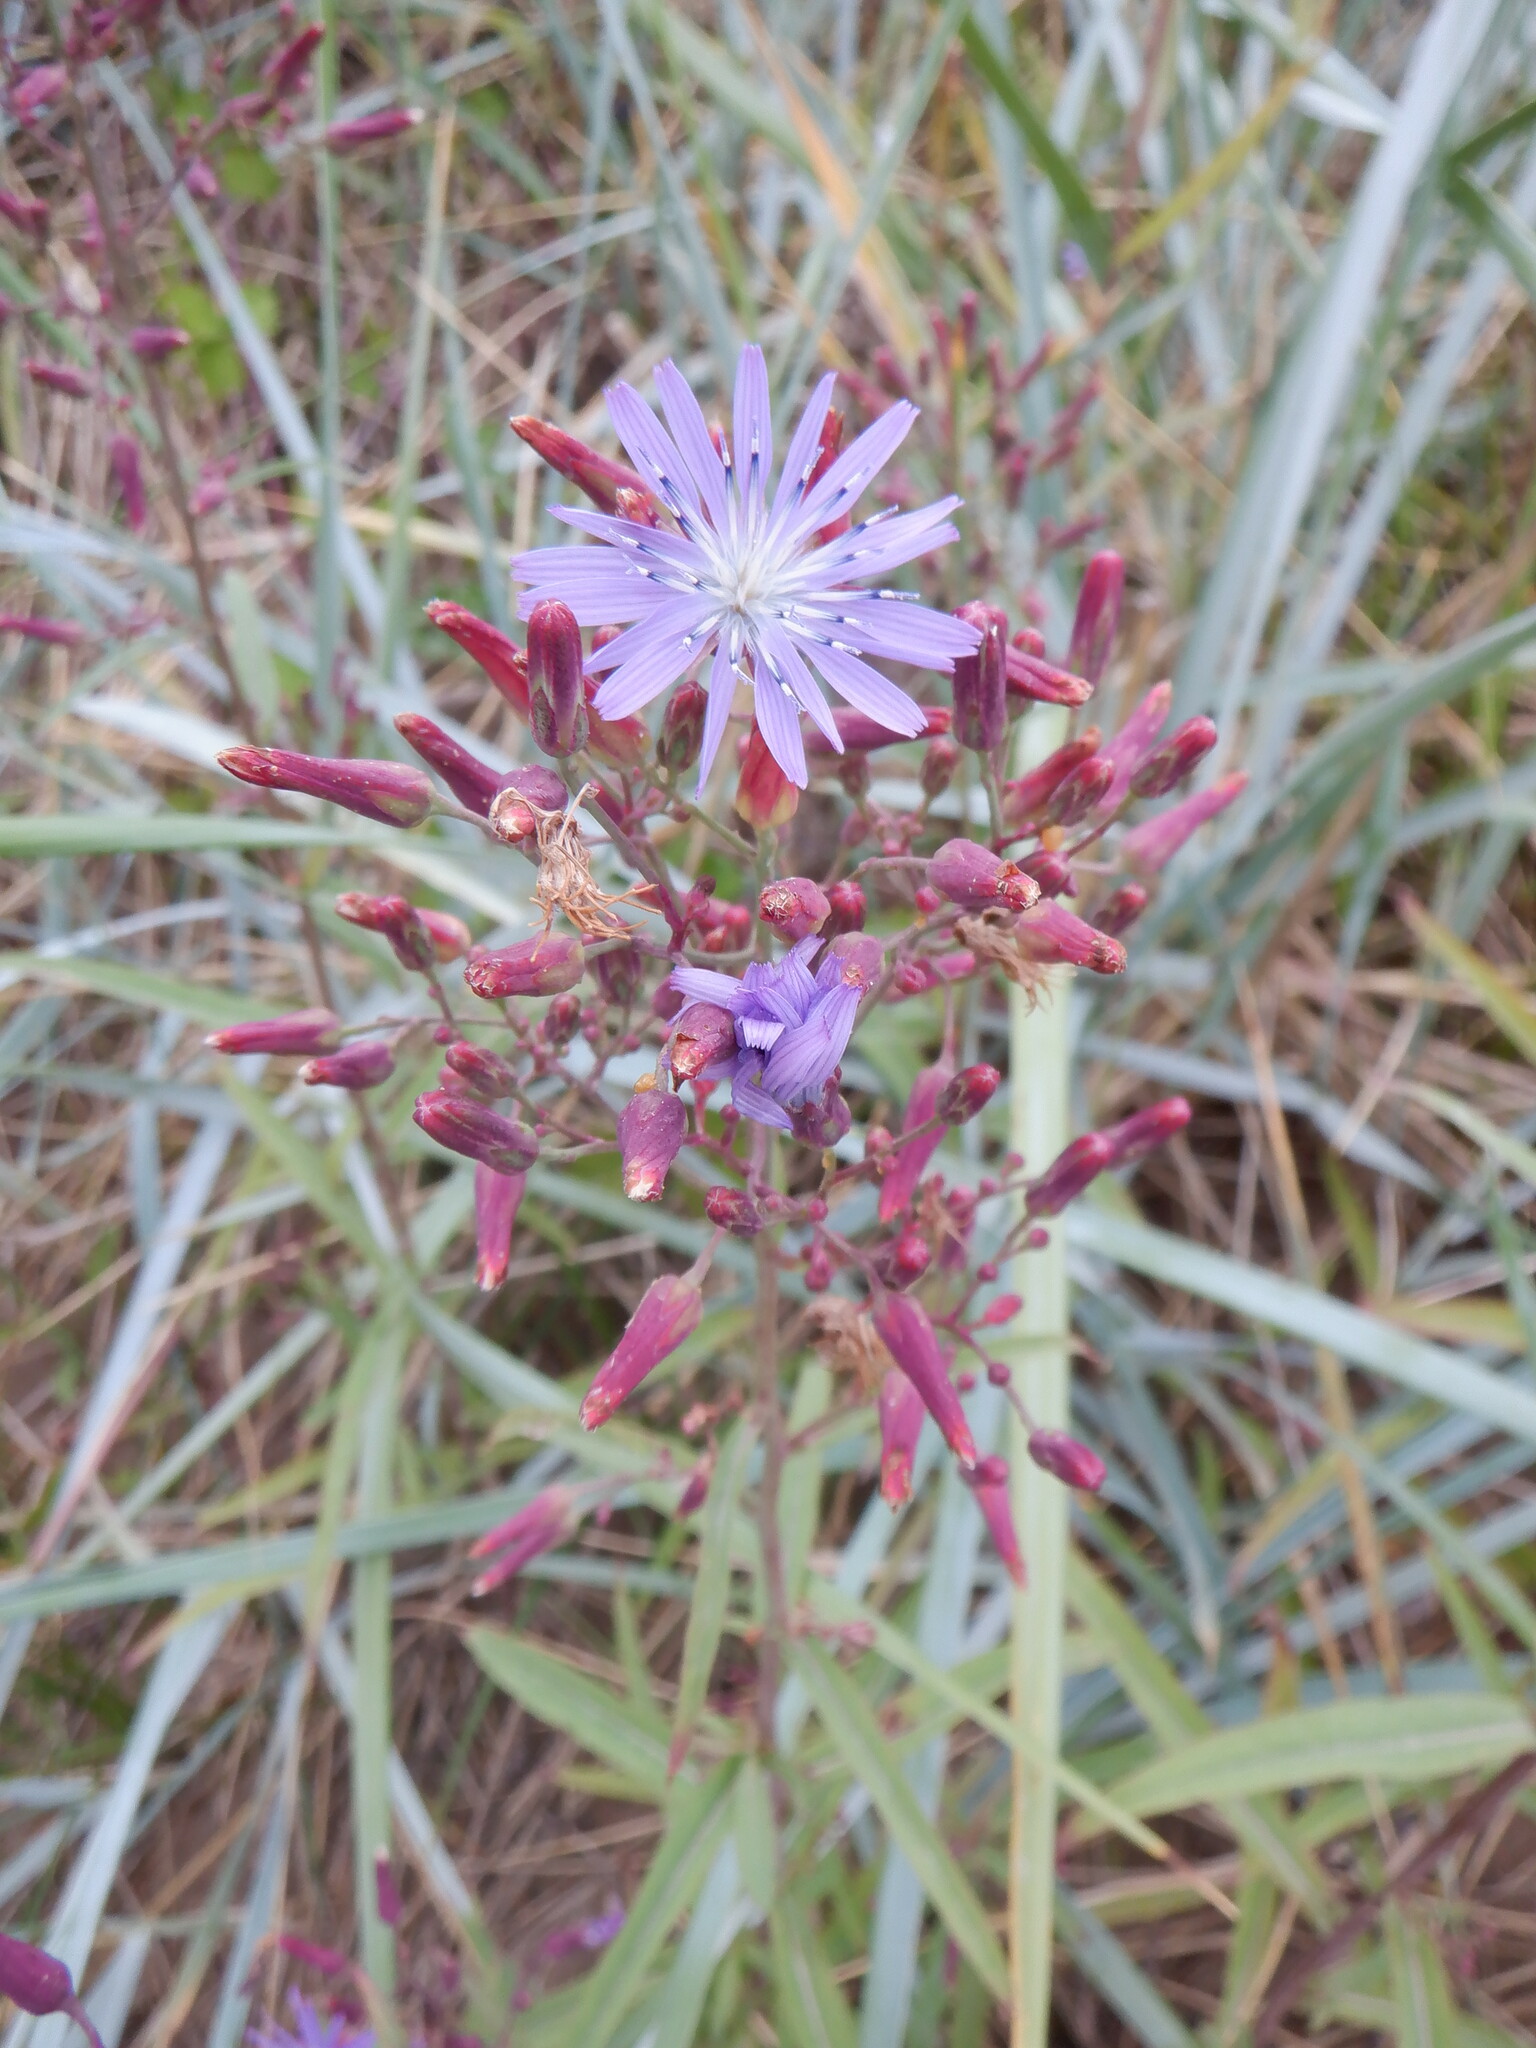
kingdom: Plantae
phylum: Tracheophyta
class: Magnoliopsida
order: Asterales
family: Asteraceae
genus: Lactuca
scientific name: Lactuca tatarica
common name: Blue lettuce
